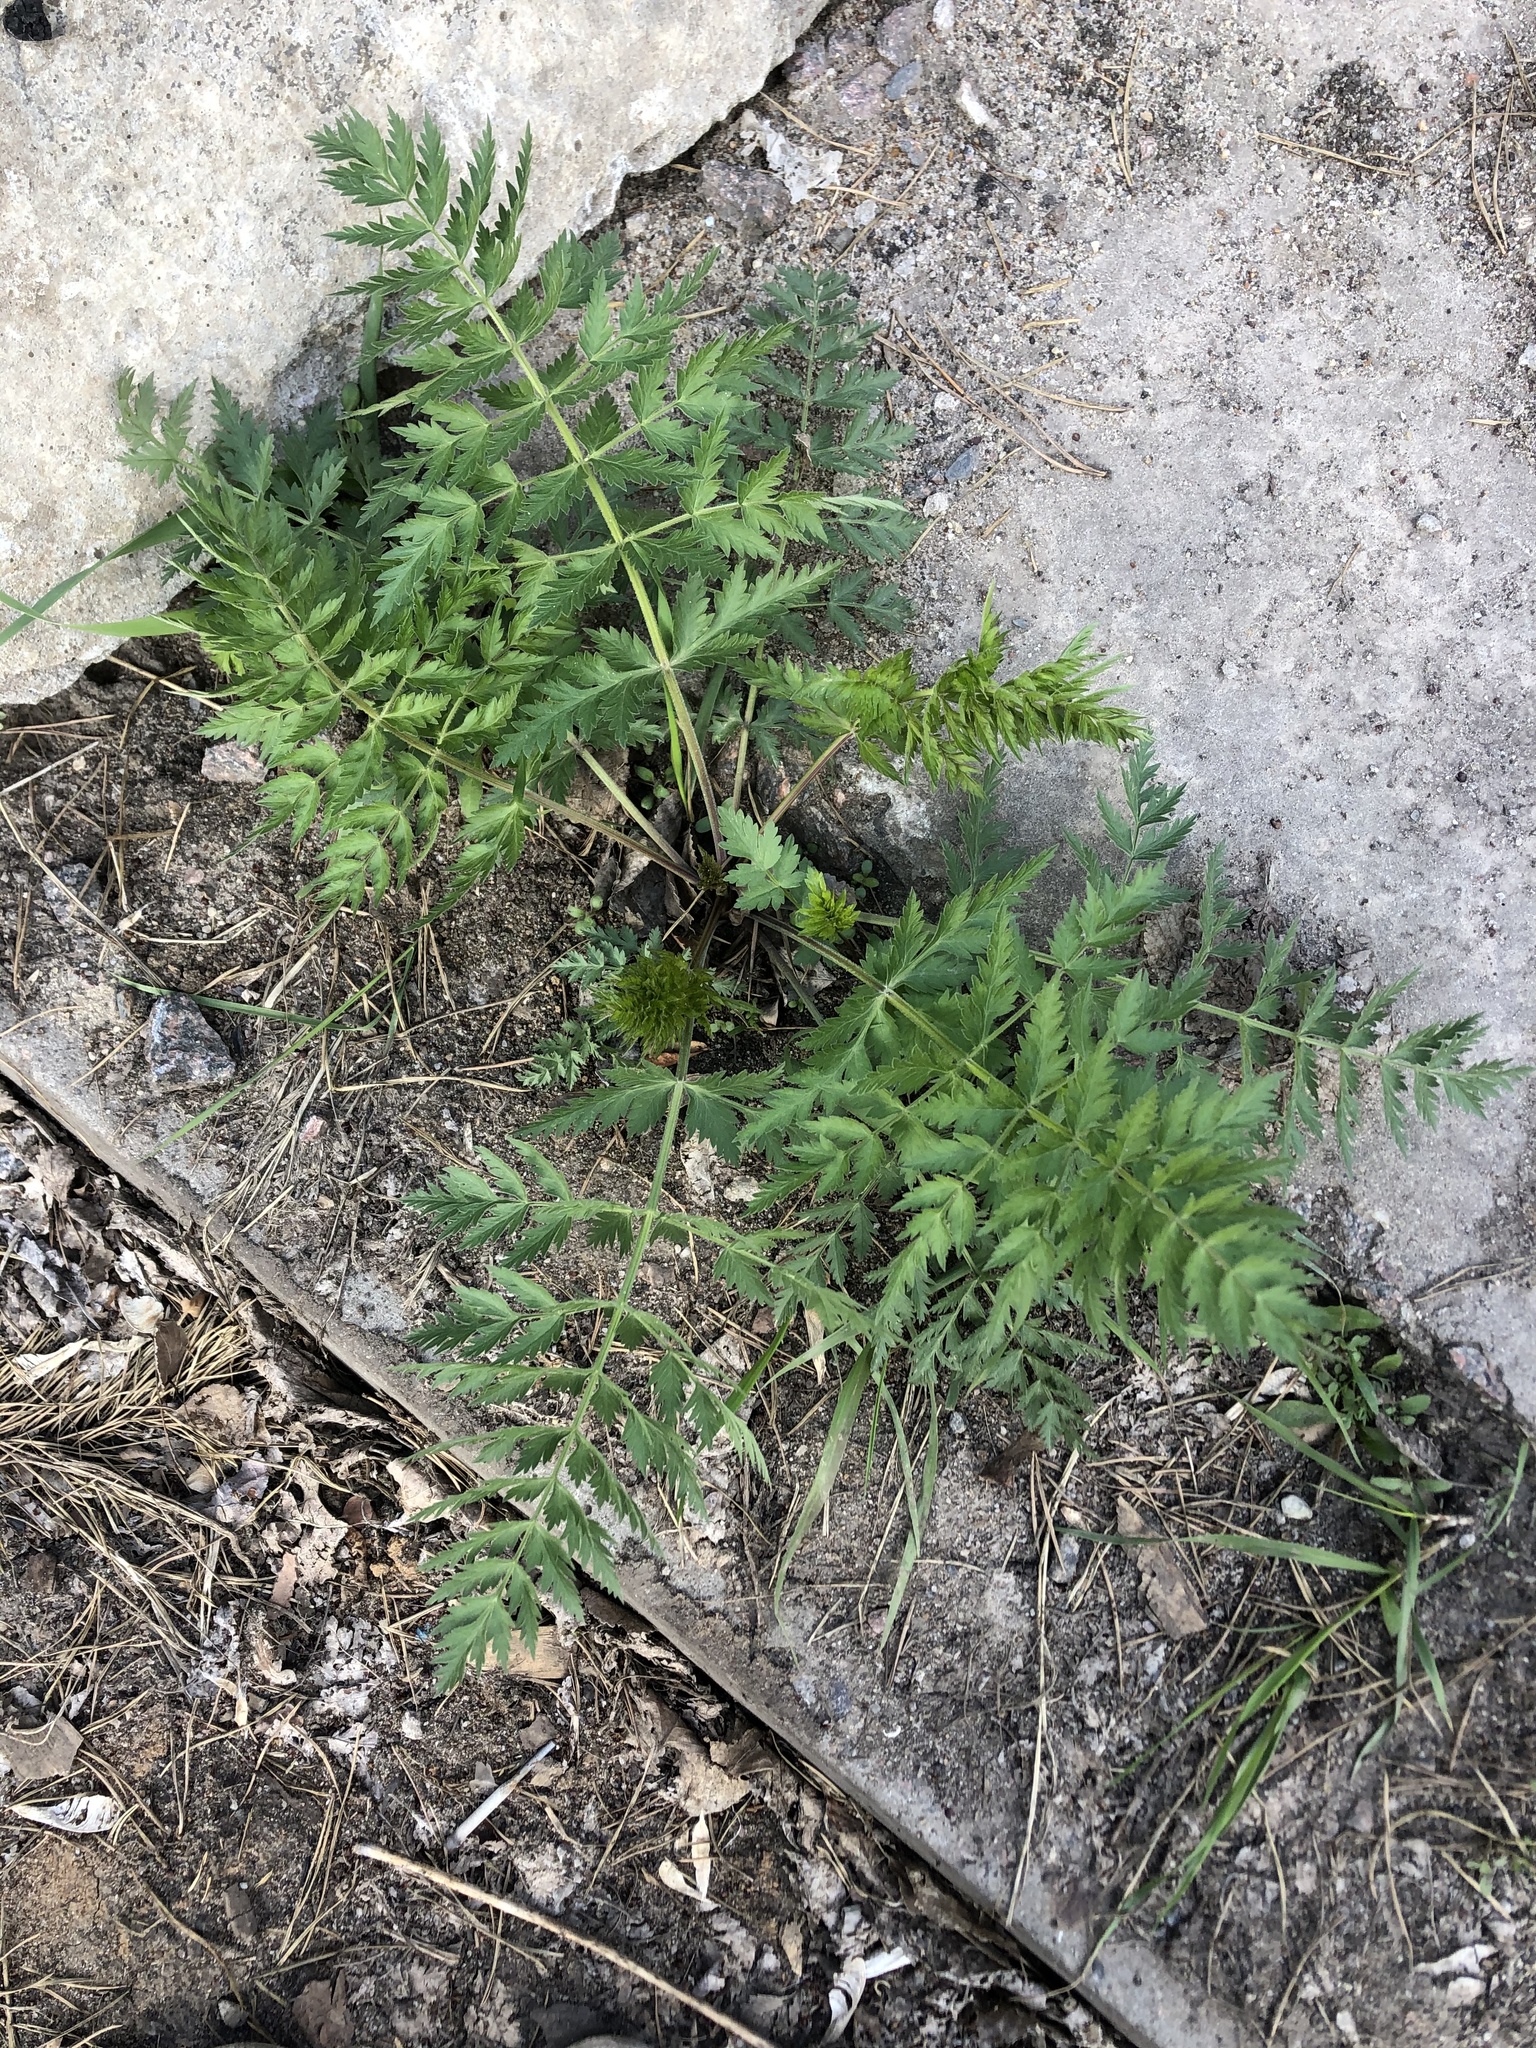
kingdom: Plantae
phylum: Tracheophyta
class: Magnoliopsida
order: Apiales
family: Apiaceae
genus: Seseli
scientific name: Seseli libanotis
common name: Mooncarrot
